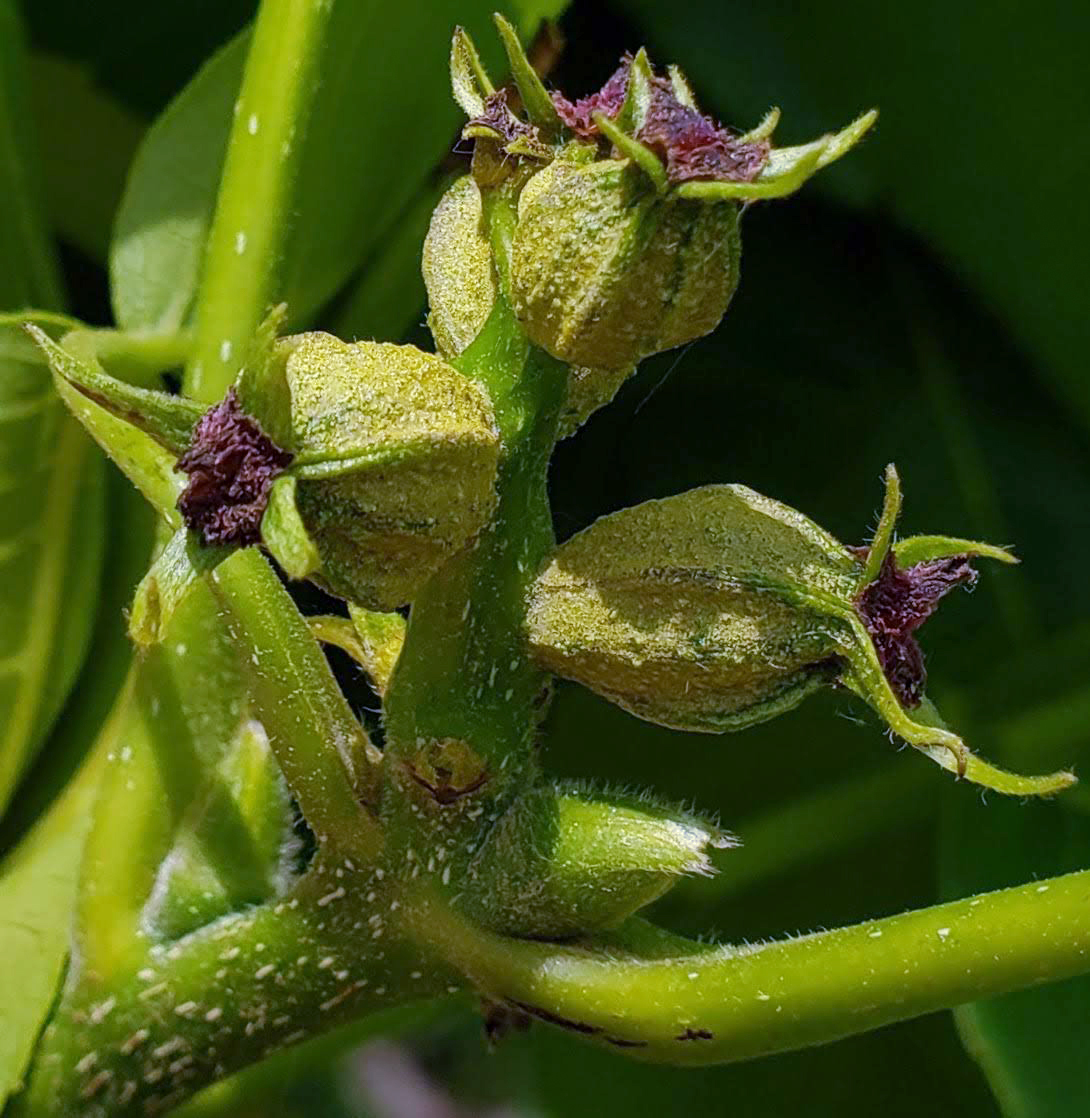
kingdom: Plantae
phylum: Tracheophyta
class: Magnoliopsida
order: Fagales
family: Juglandaceae
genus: Carya
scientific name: Carya ovata
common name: Shagbark hickory
